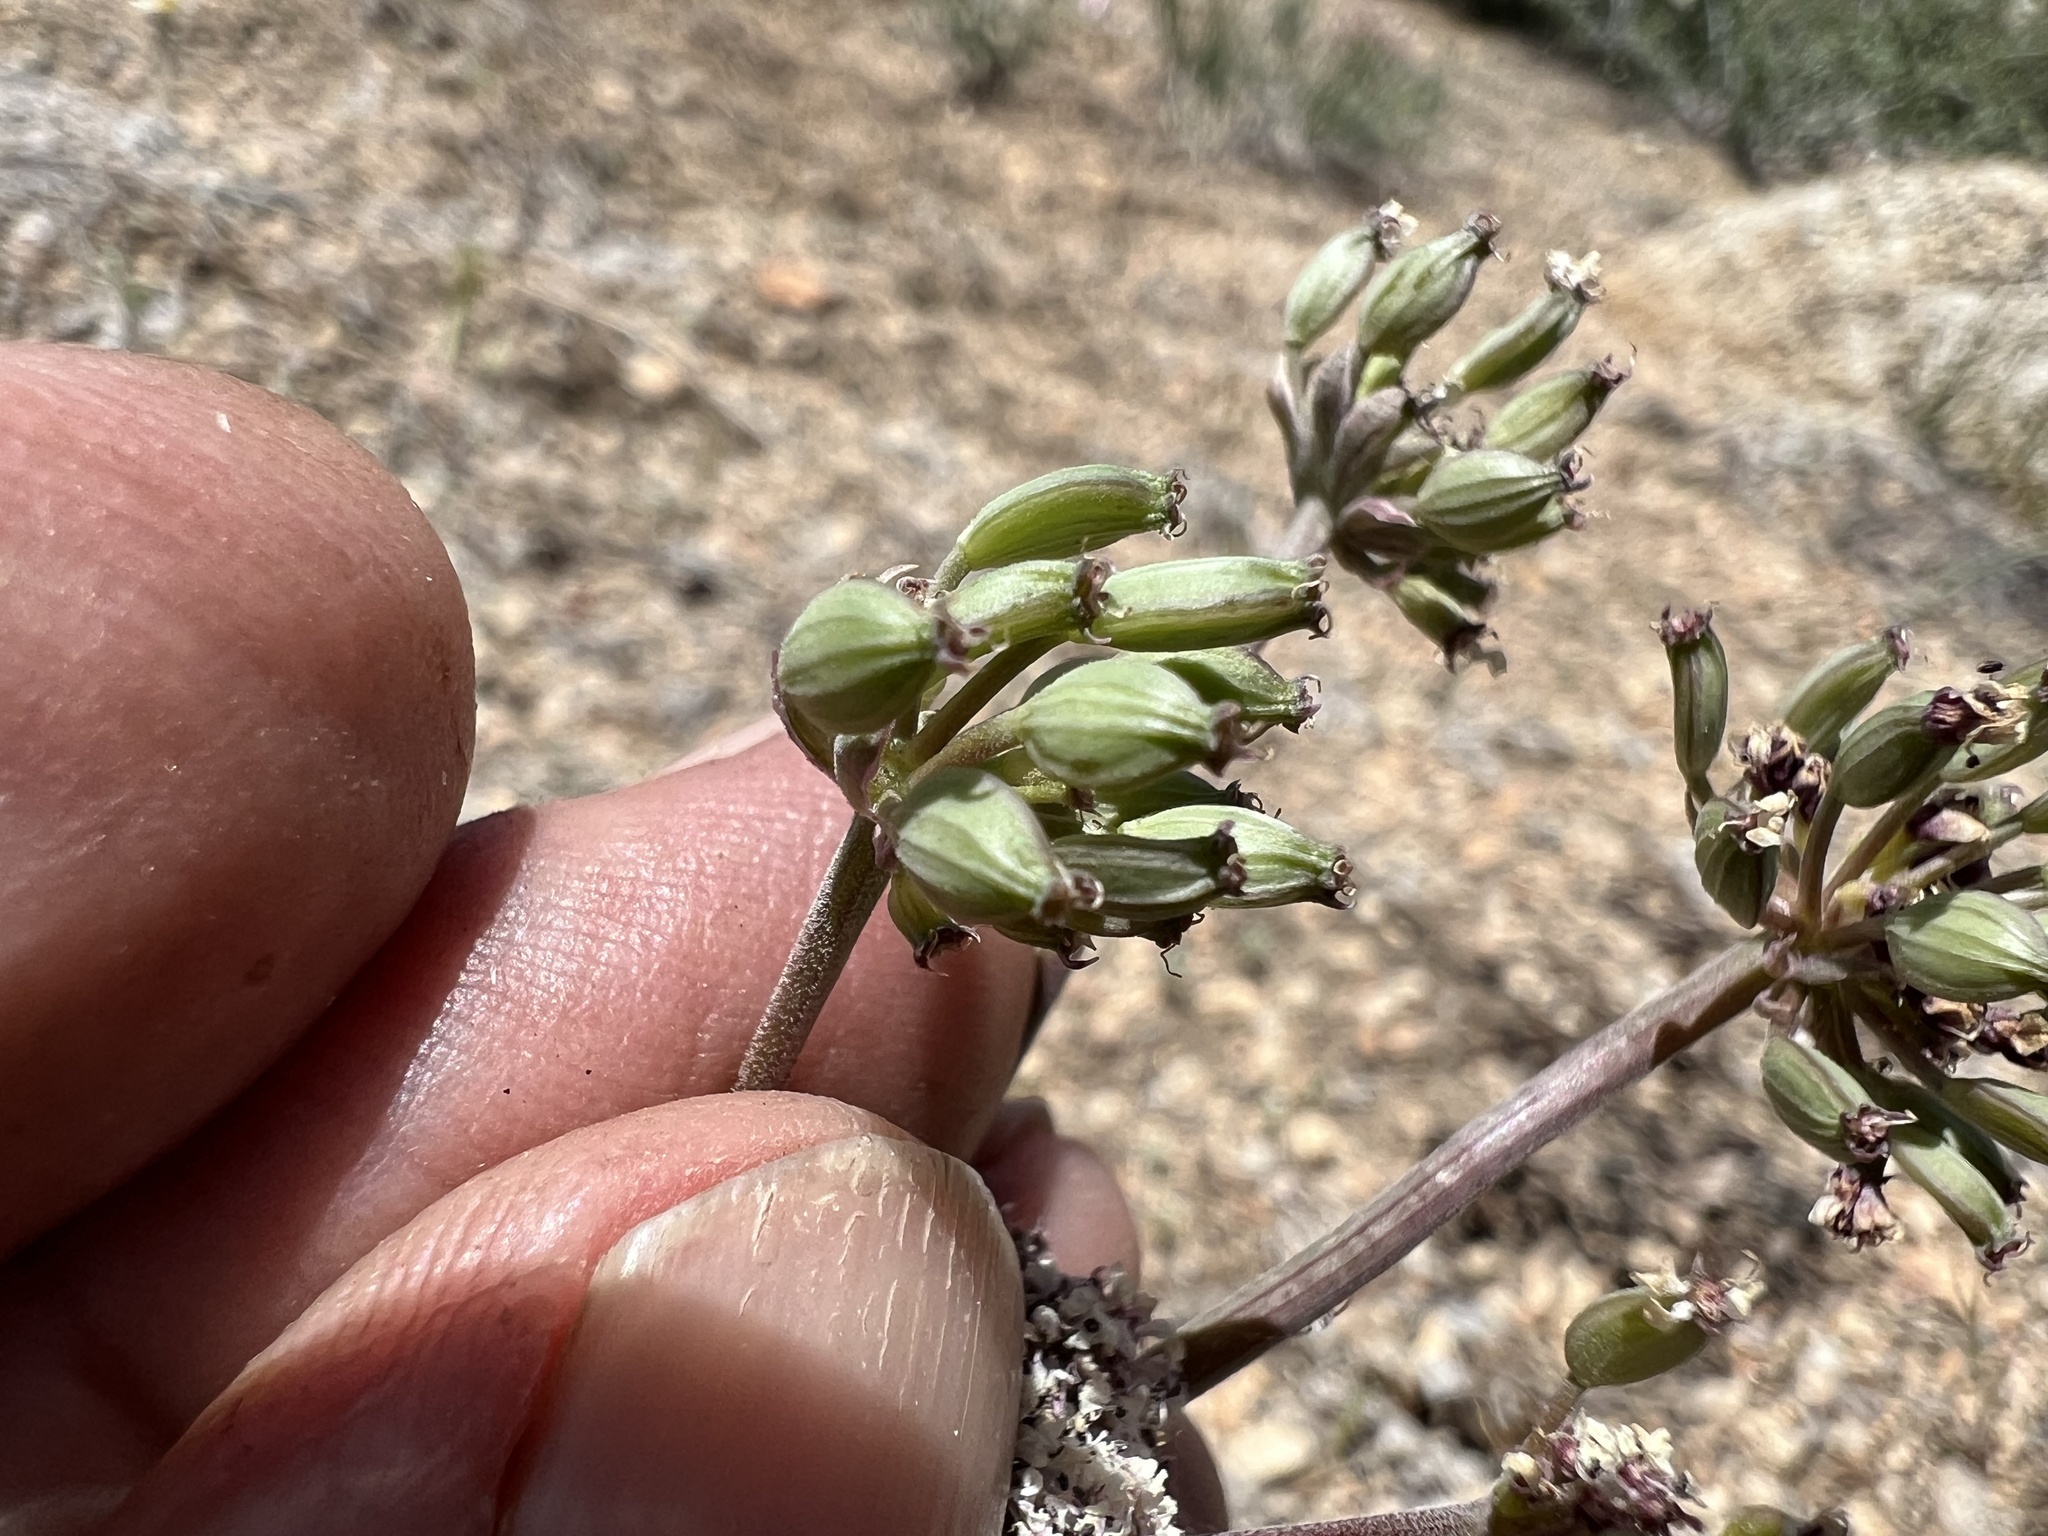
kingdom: Plantae
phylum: Tracheophyta
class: Magnoliopsida
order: Apiales
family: Apiaceae
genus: Lomatium
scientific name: Lomatium nevadense
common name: Nevada lomatium
